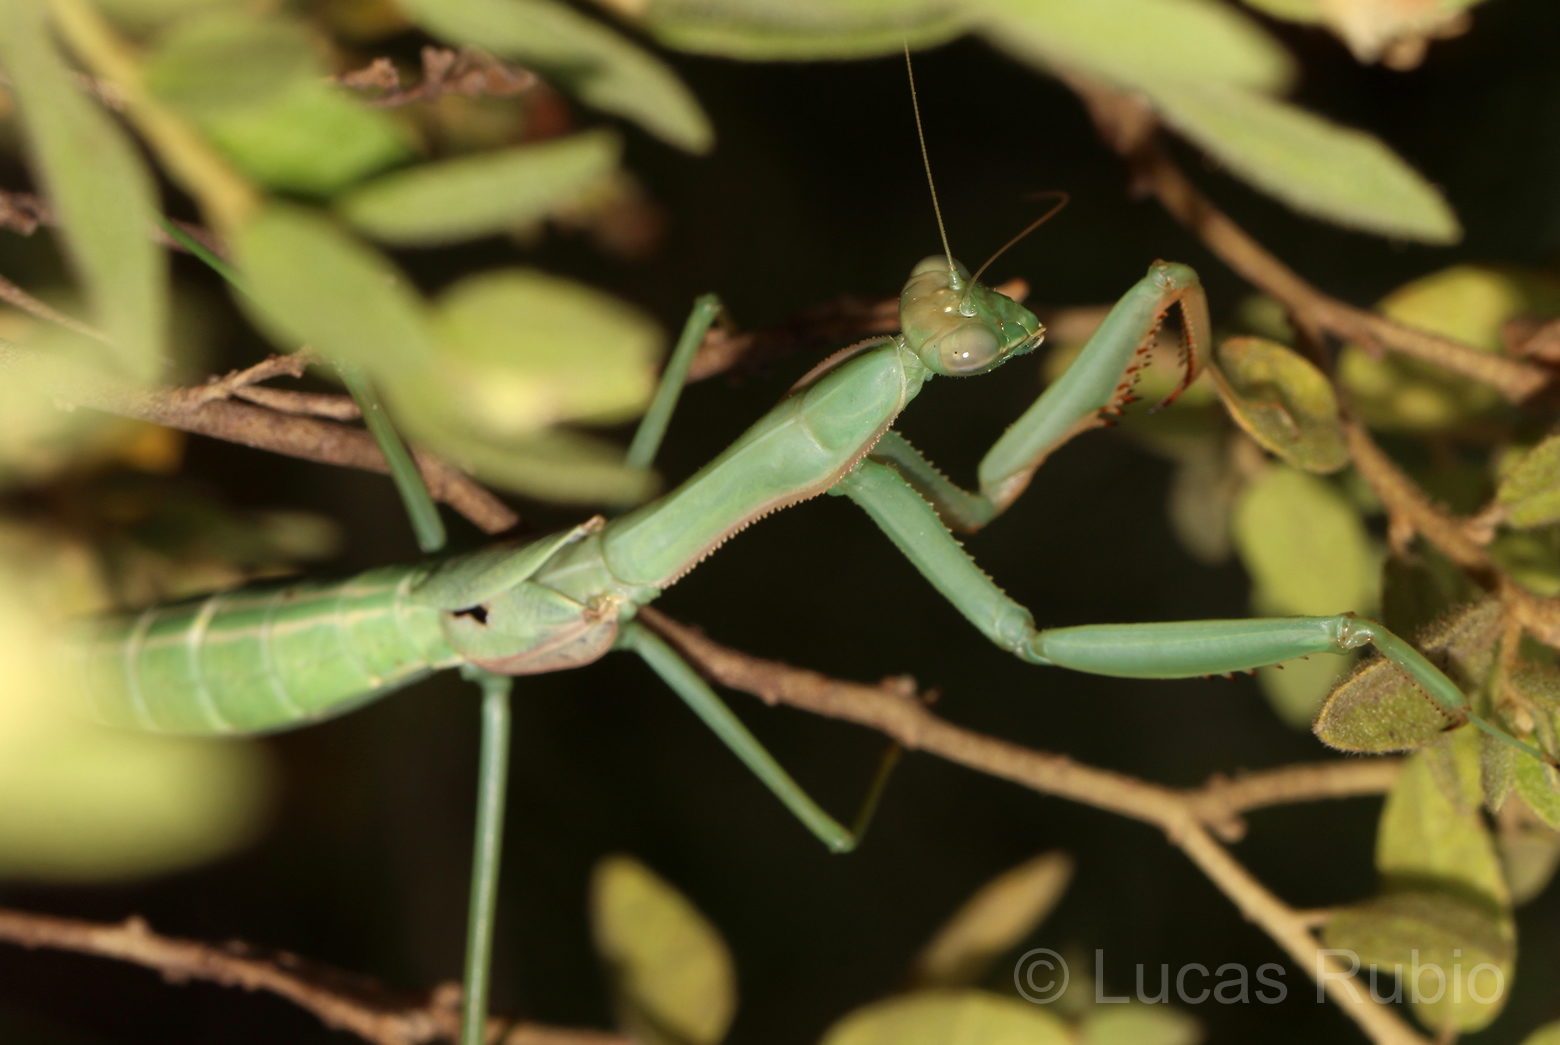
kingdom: Animalia
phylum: Arthropoda
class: Insecta
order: Mantodea
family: Coptopterygidae
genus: Coptopteryx
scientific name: Coptopteryx argentina
